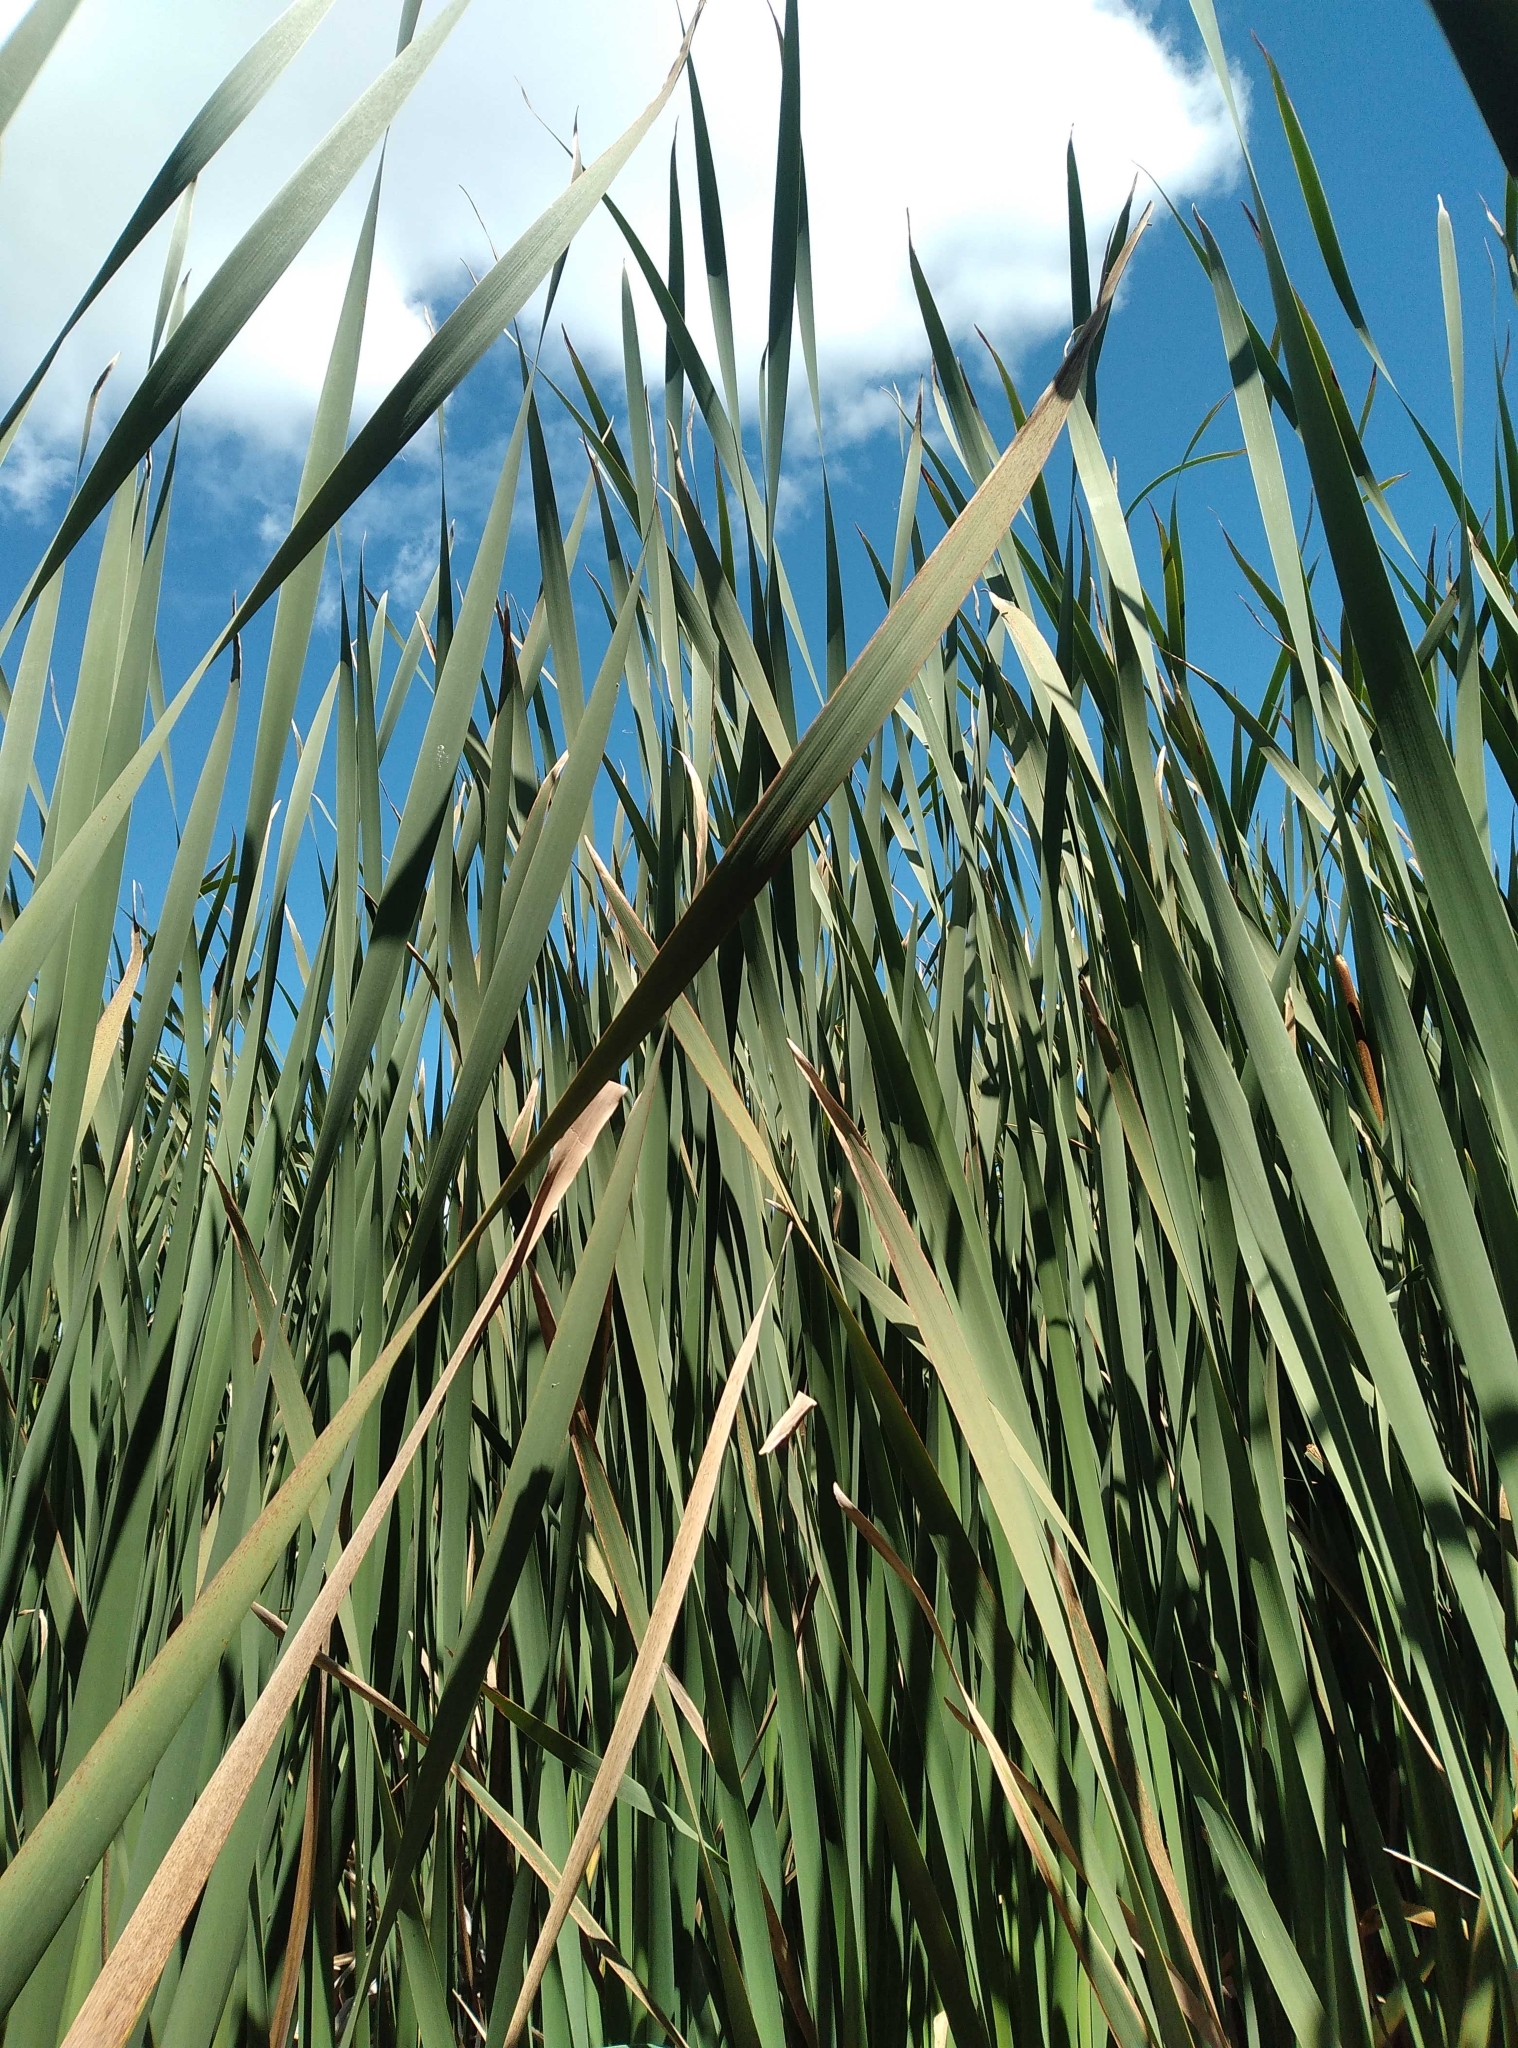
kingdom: Plantae
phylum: Tracheophyta
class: Liliopsida
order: Poales
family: Typhaceae
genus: Typha
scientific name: Typha orientalis
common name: Bullrush
